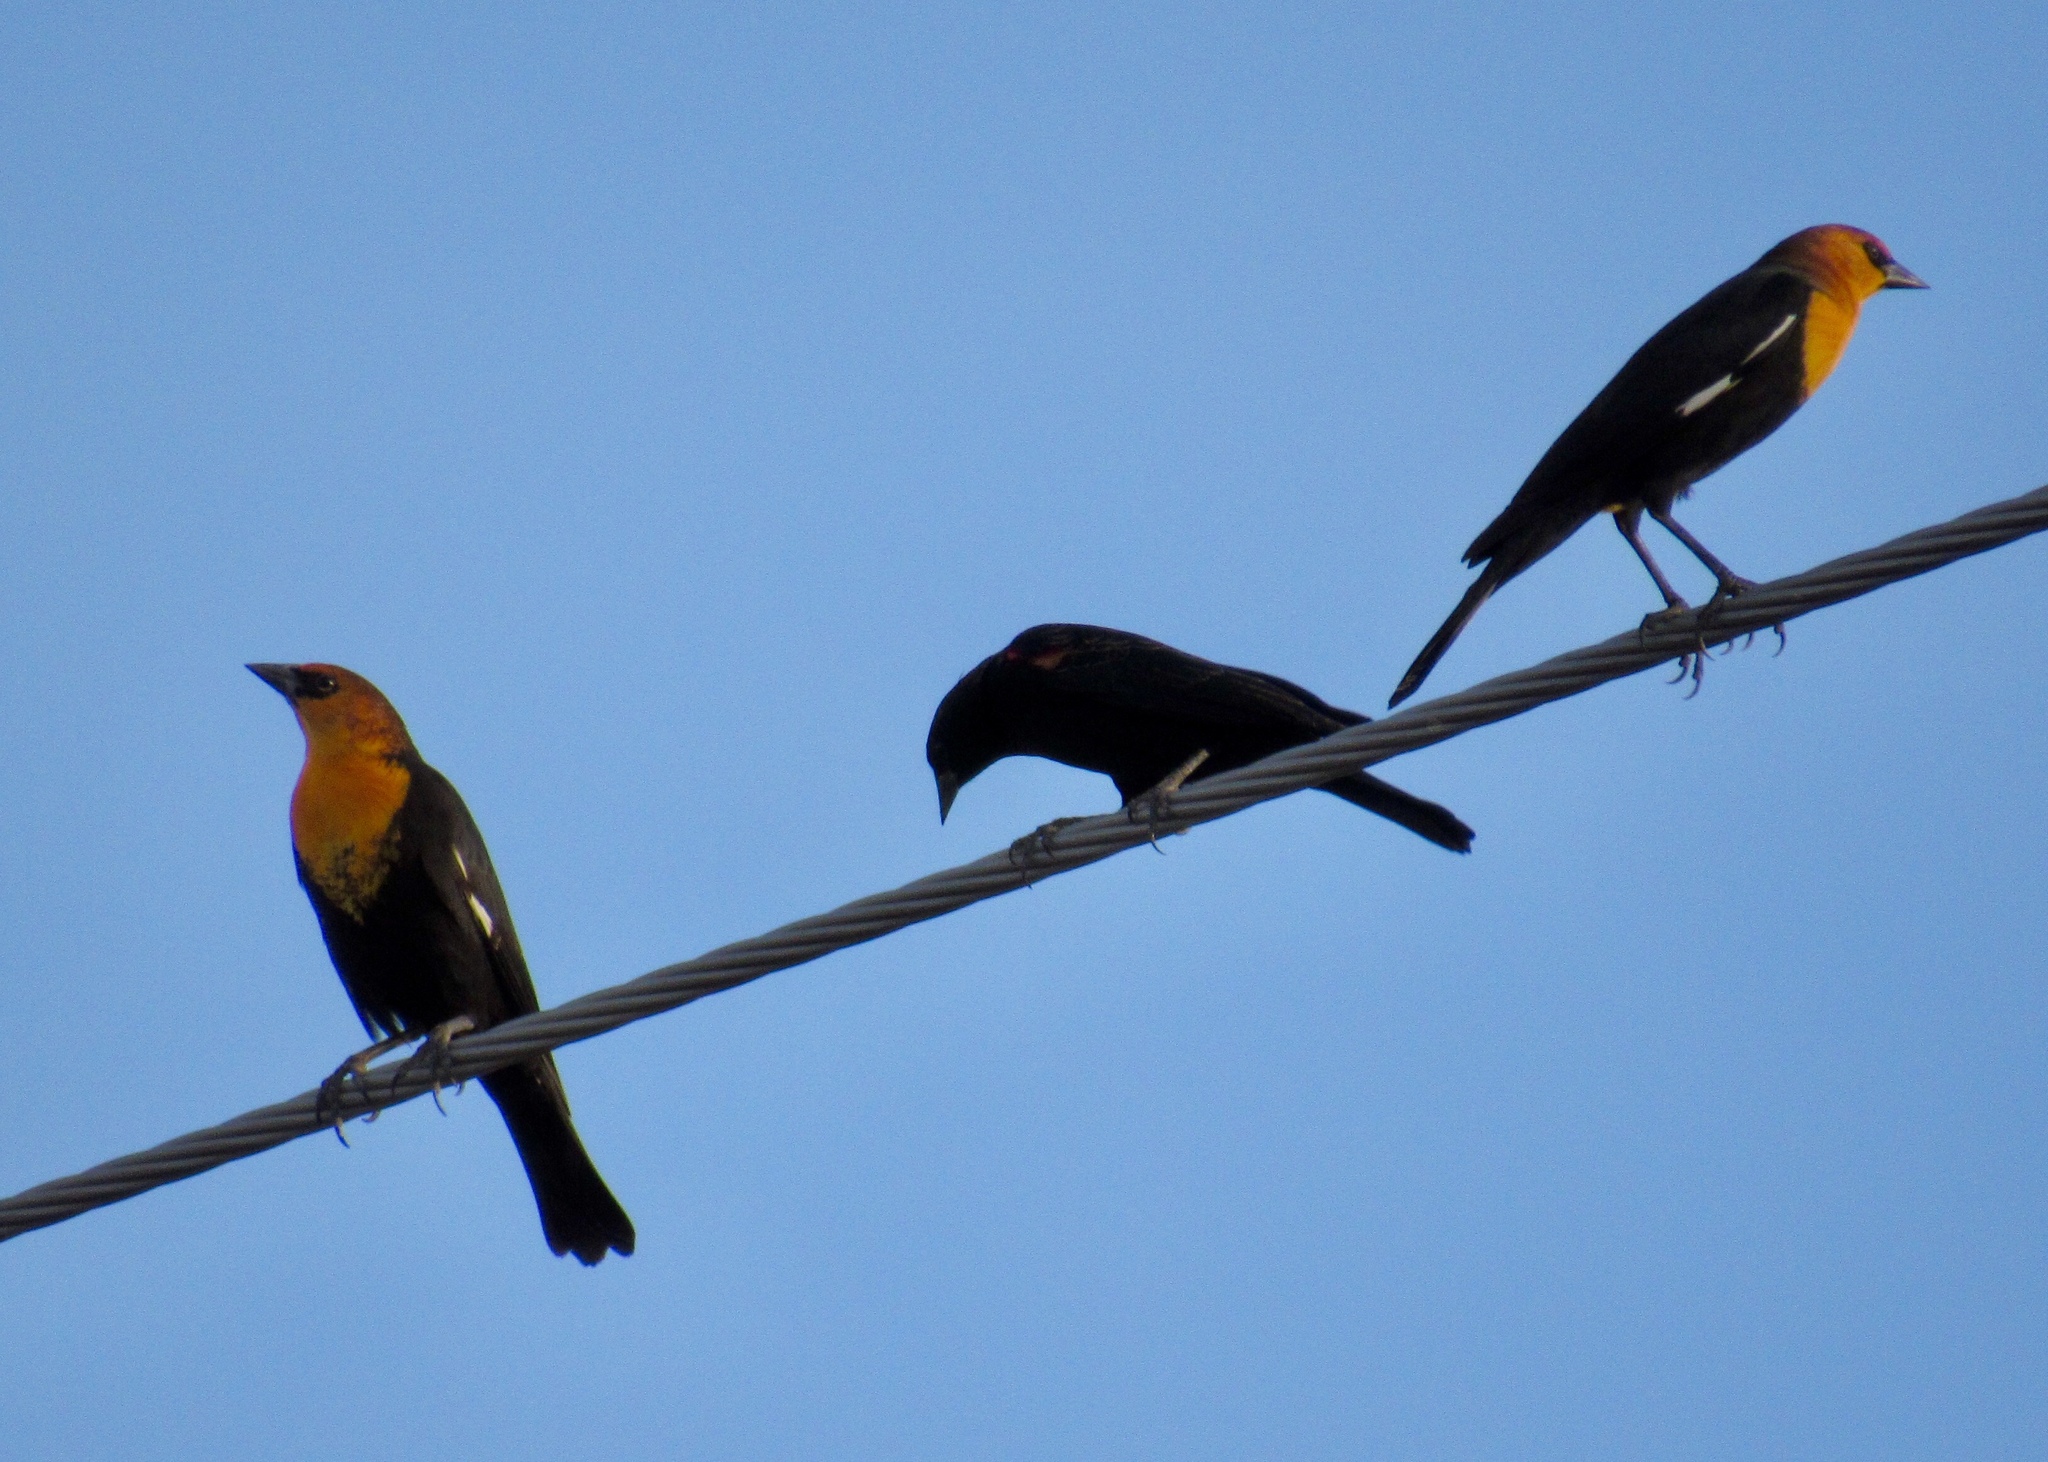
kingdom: Animalia
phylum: Chordata
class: Aves
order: Passeriformes
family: Icteridae
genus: Xanthocephalus
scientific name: Xanthocephalus xanthocephalus
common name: Yellow-headed blackbird
